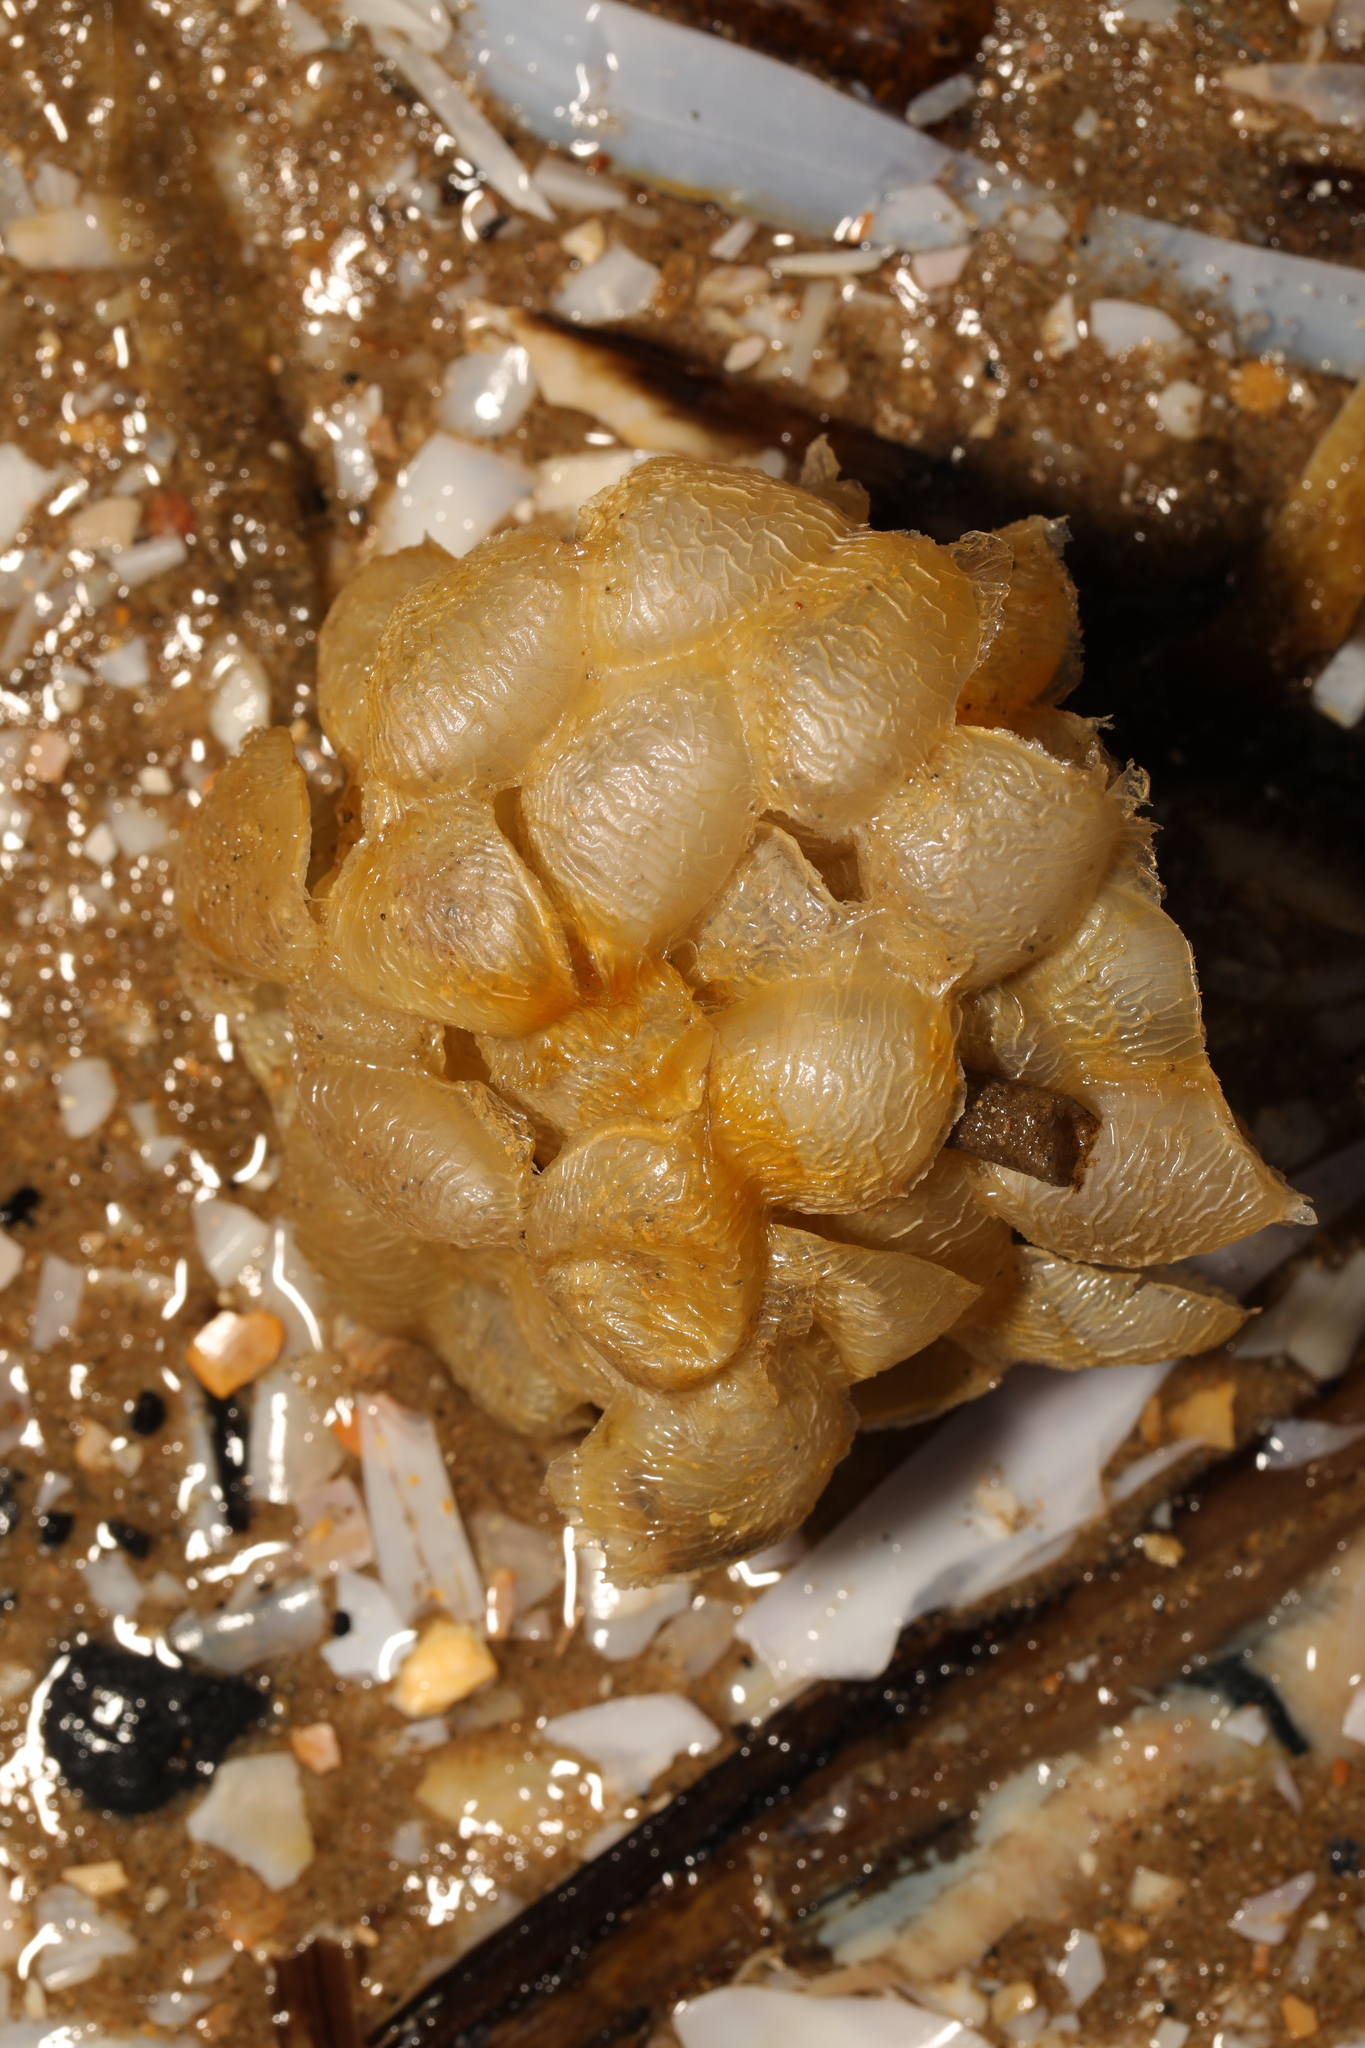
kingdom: Animalia
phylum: Mollusca
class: Gastropoda
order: Neogastropoda
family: Buccinidae
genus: Buccinum
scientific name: Buccinum undatum
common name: Common whelk
